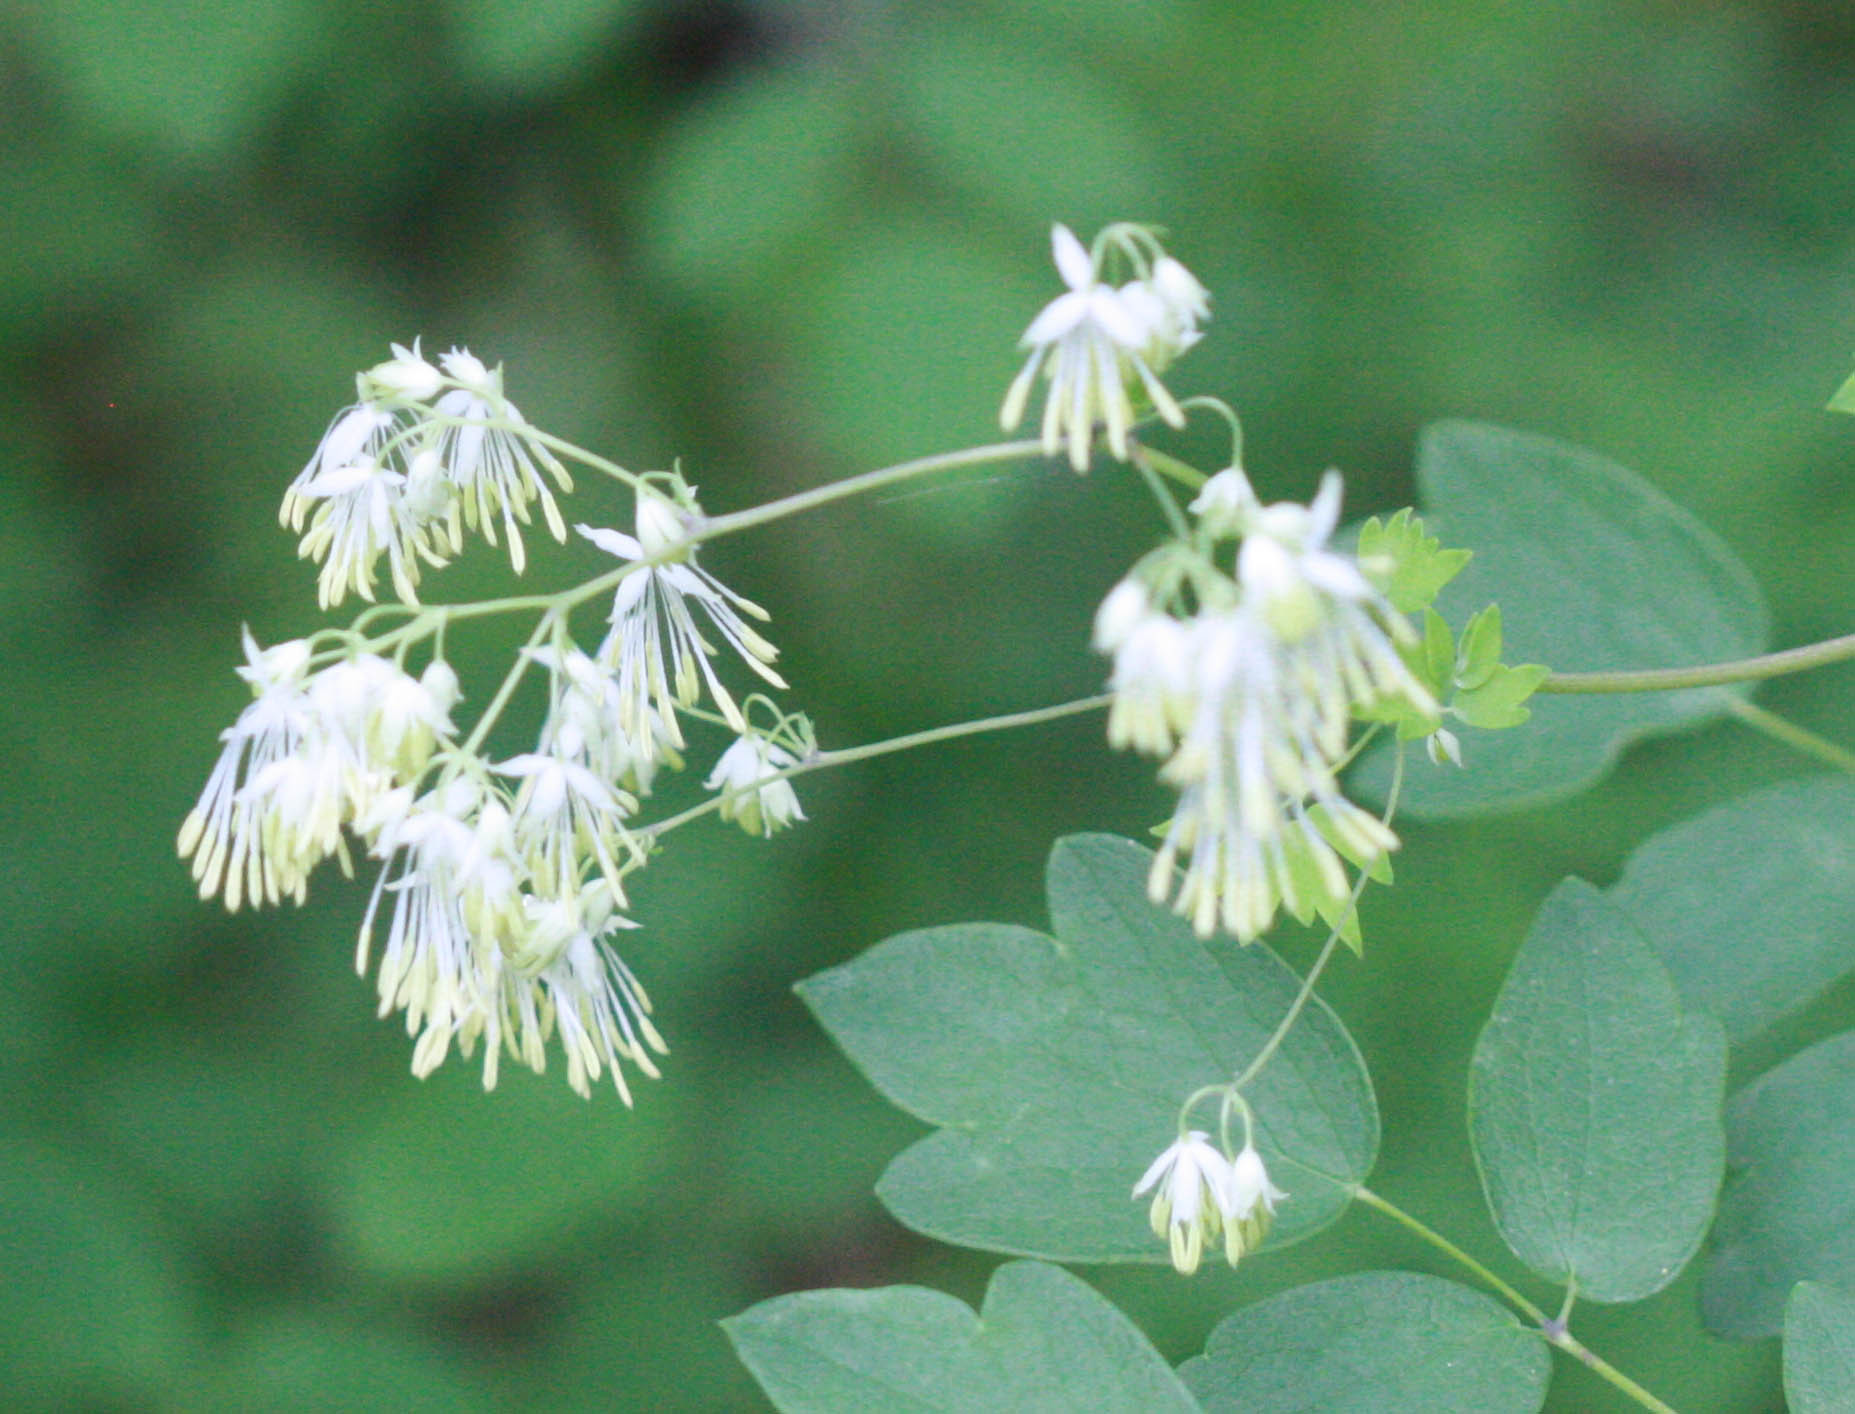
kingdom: Plantae
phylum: Tracheophyta
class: Magnoliopsida
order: Ranunculales
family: Ranunculaceae
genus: Thalictrum
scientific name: Thalictrum dasycarpum
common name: Purple meadow-rue
